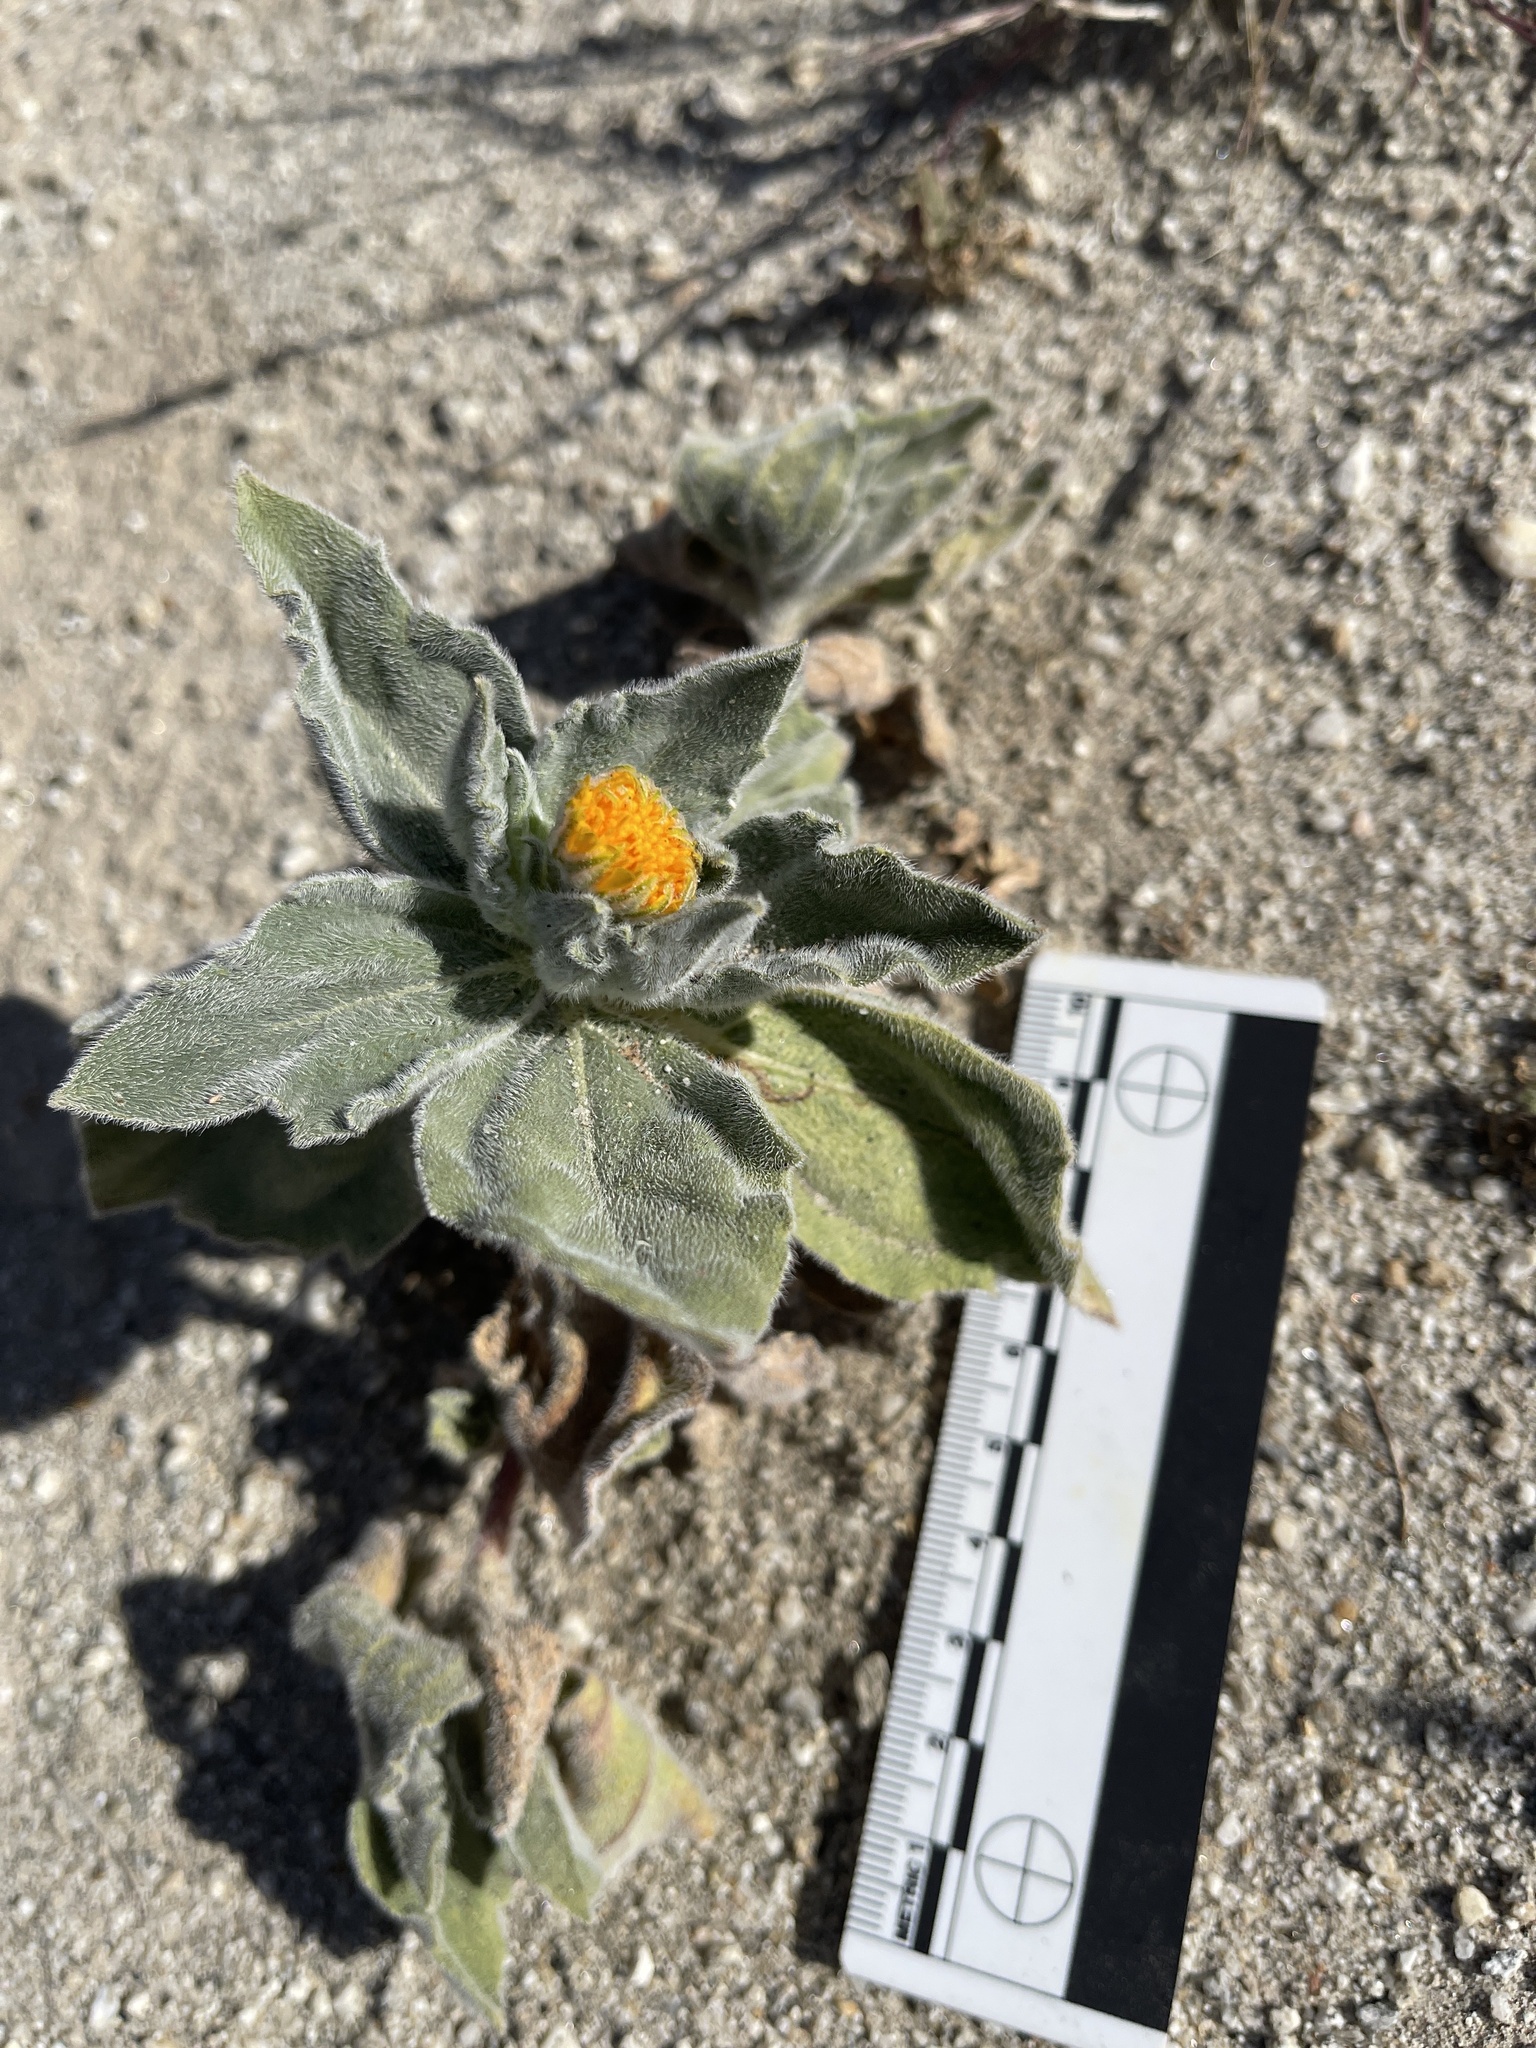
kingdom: Plantae
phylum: Tracheophyta
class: Magnoliopsida
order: Asterales
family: Asteraceae
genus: Geraea
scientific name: Geraea canescens
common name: Desert-gold
